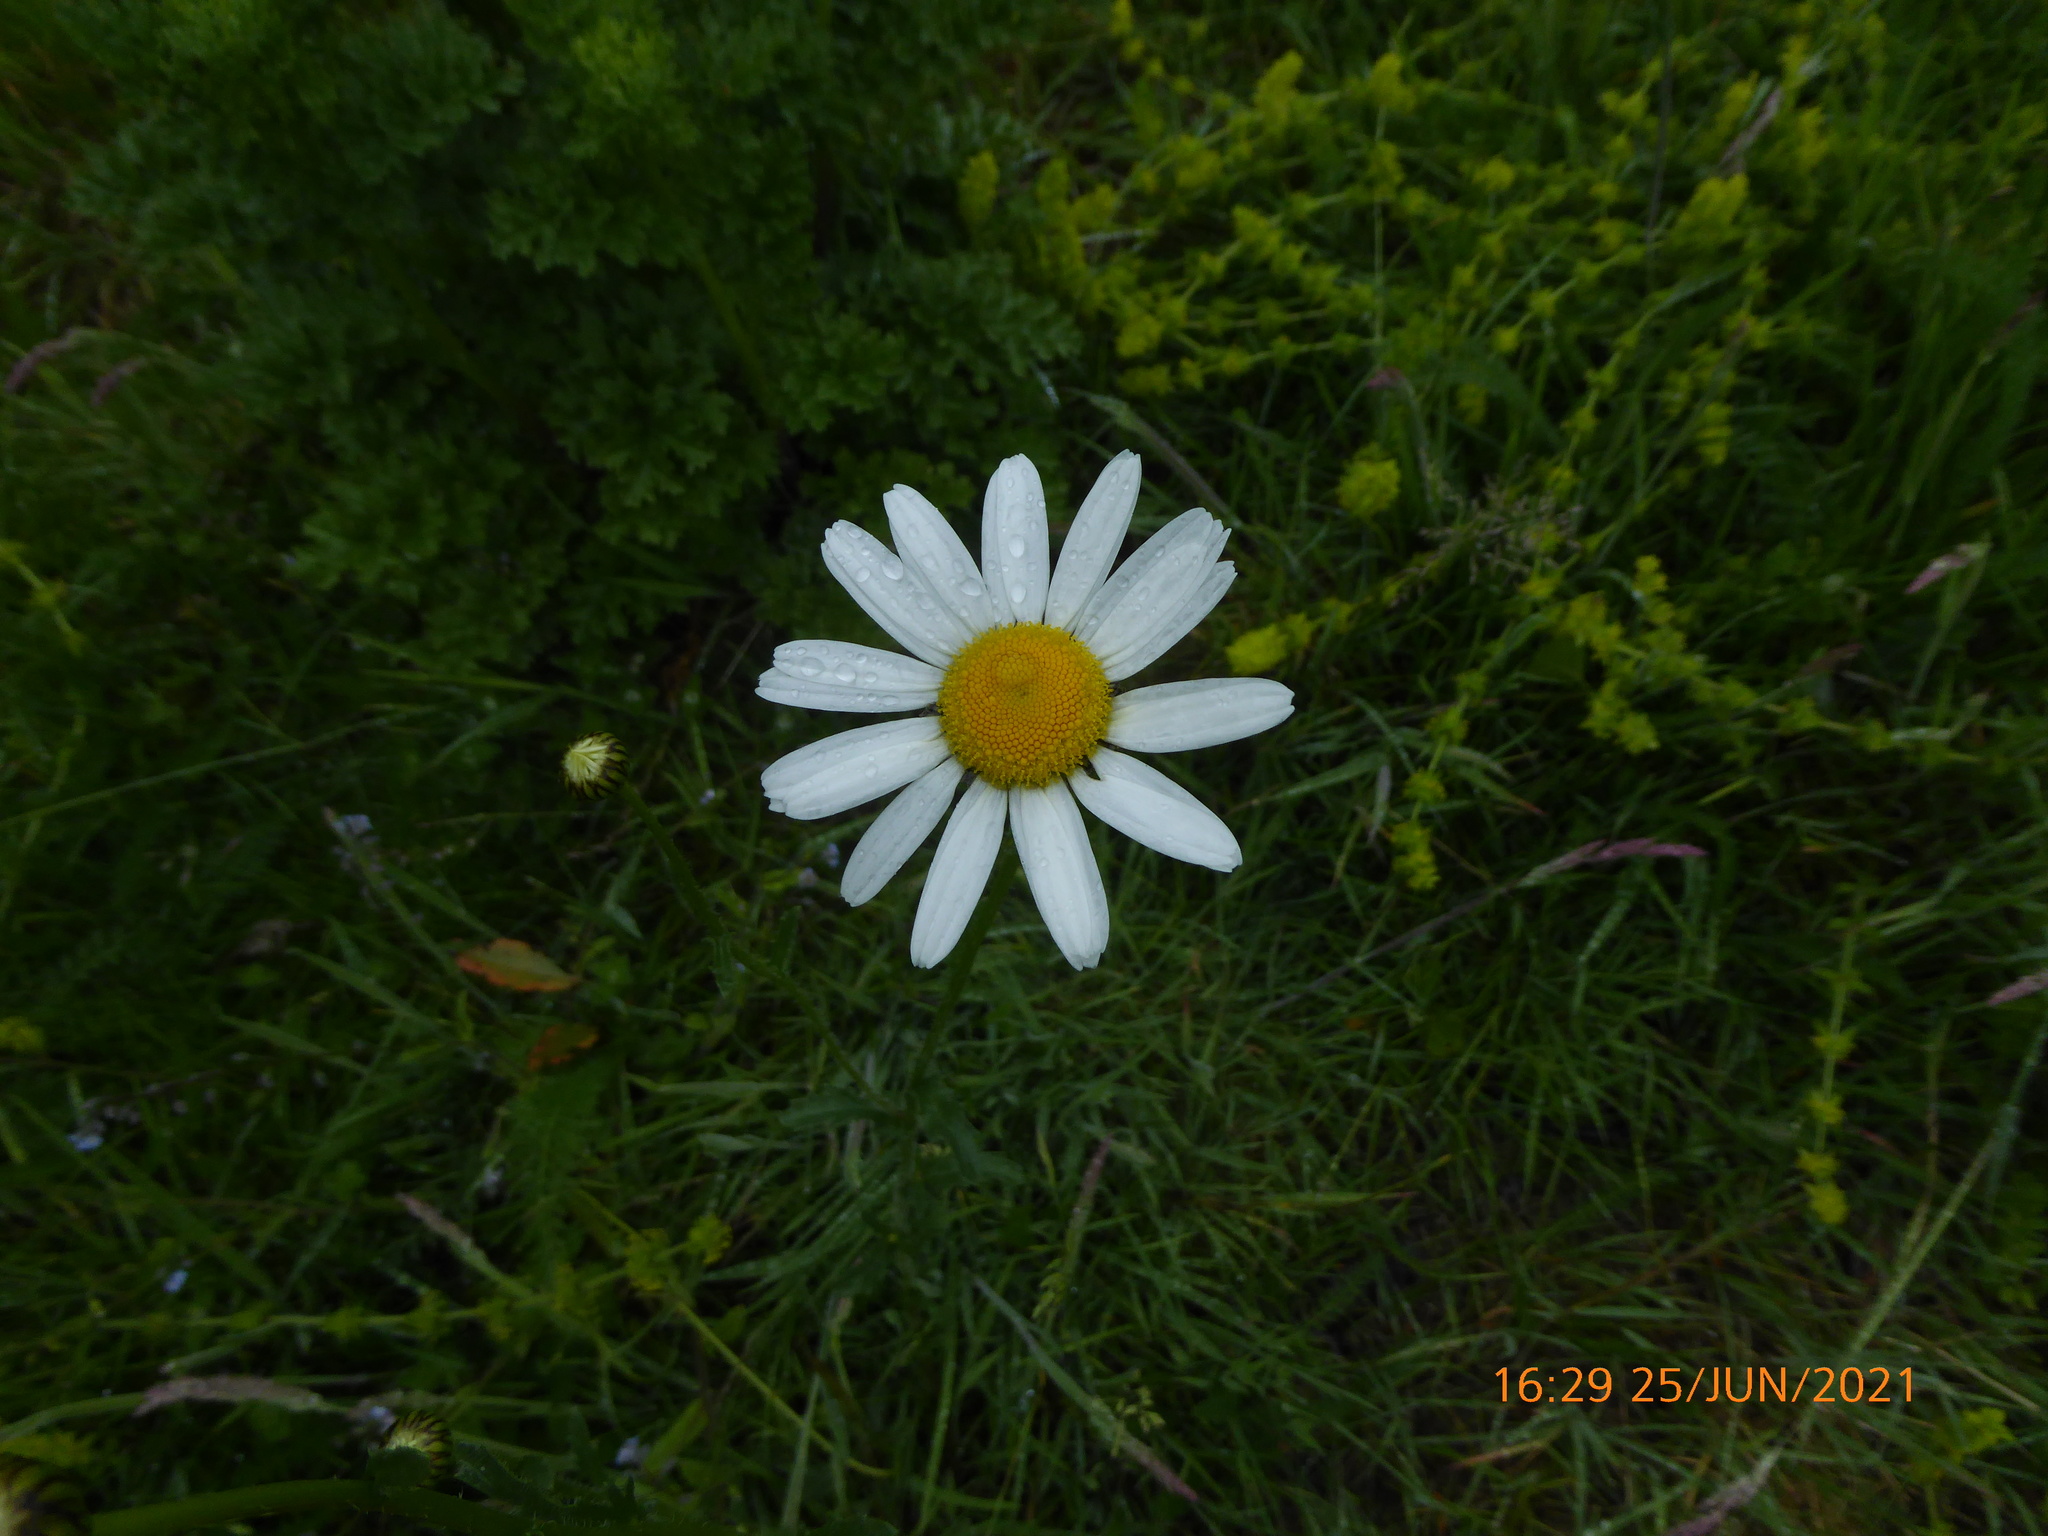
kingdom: Plantae
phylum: Tracheophyta
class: Magnoliopsida
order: Asterales
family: Asteraceae
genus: Leucanthemum
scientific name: Leucanthemum vulgare
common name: Oxeye daisy
